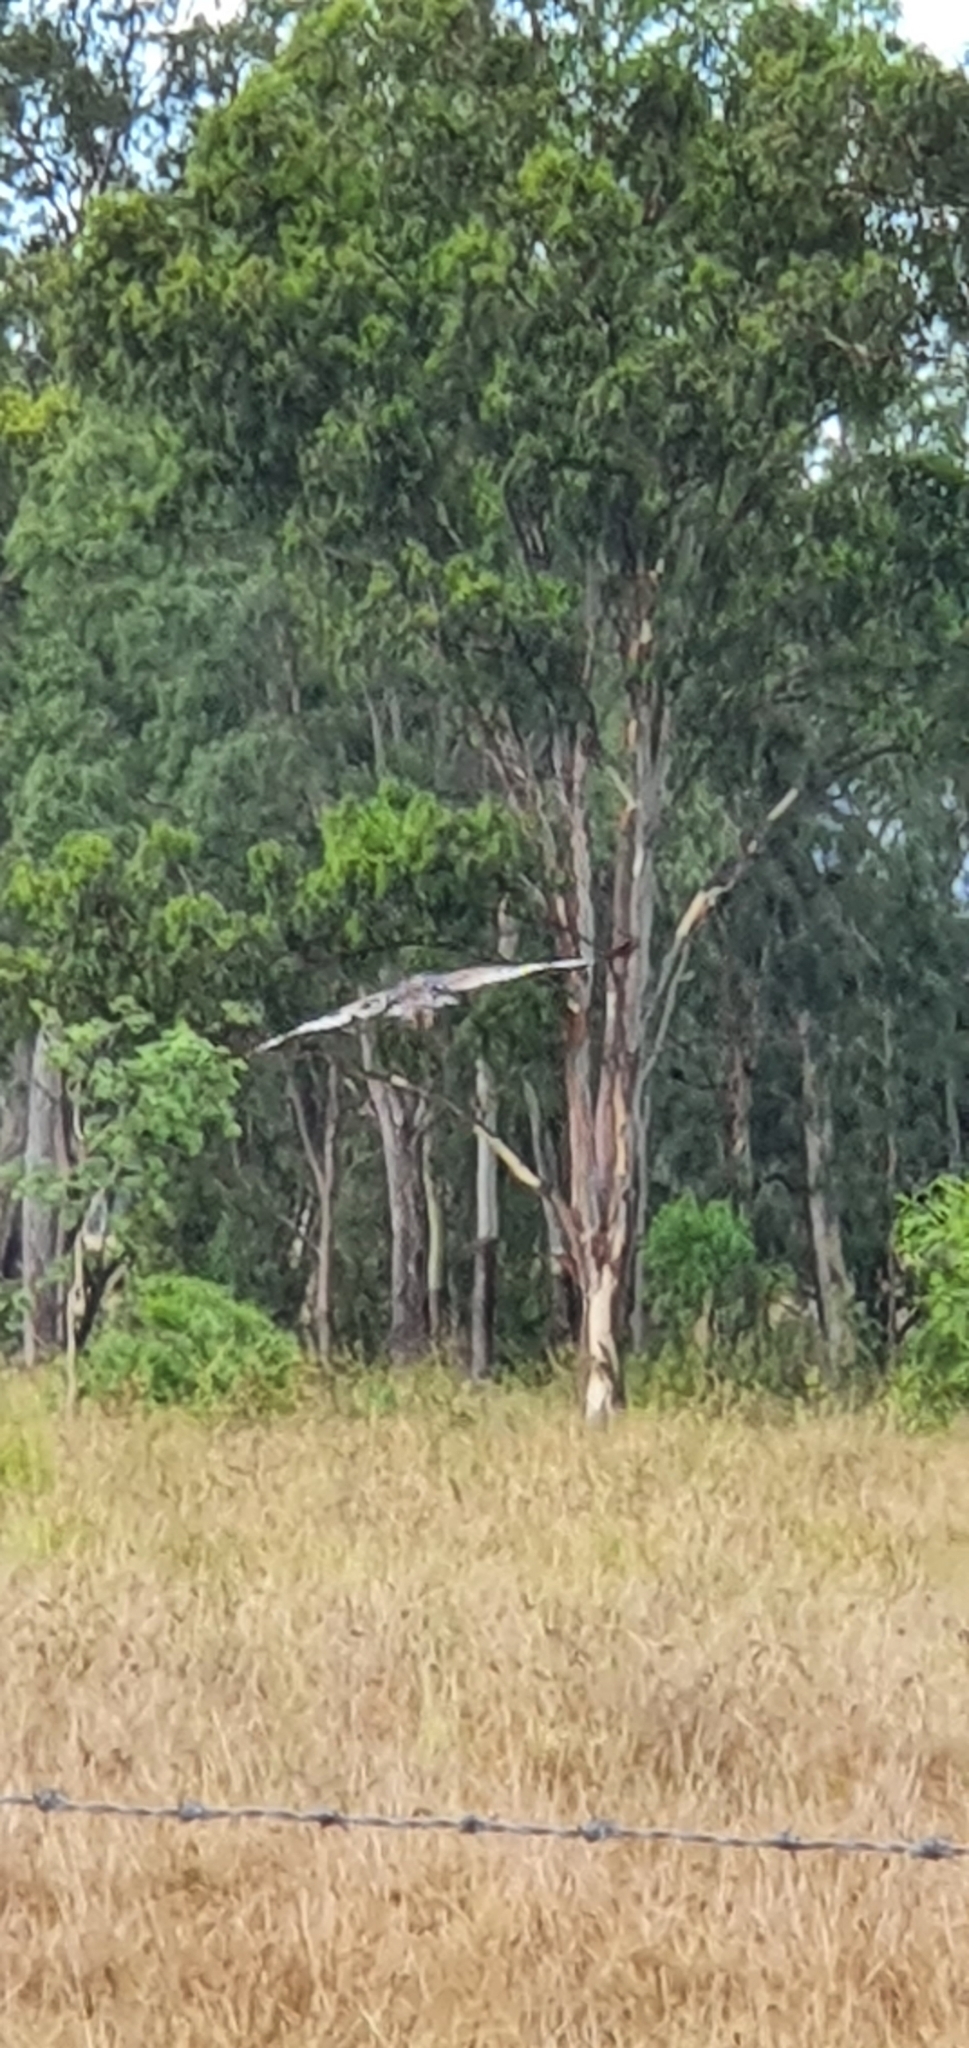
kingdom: Animalia
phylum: Chordata
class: Aves
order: Otidiformes
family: Otididae
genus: Ardeotis
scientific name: Ardeotis australis
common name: Australian bustard
